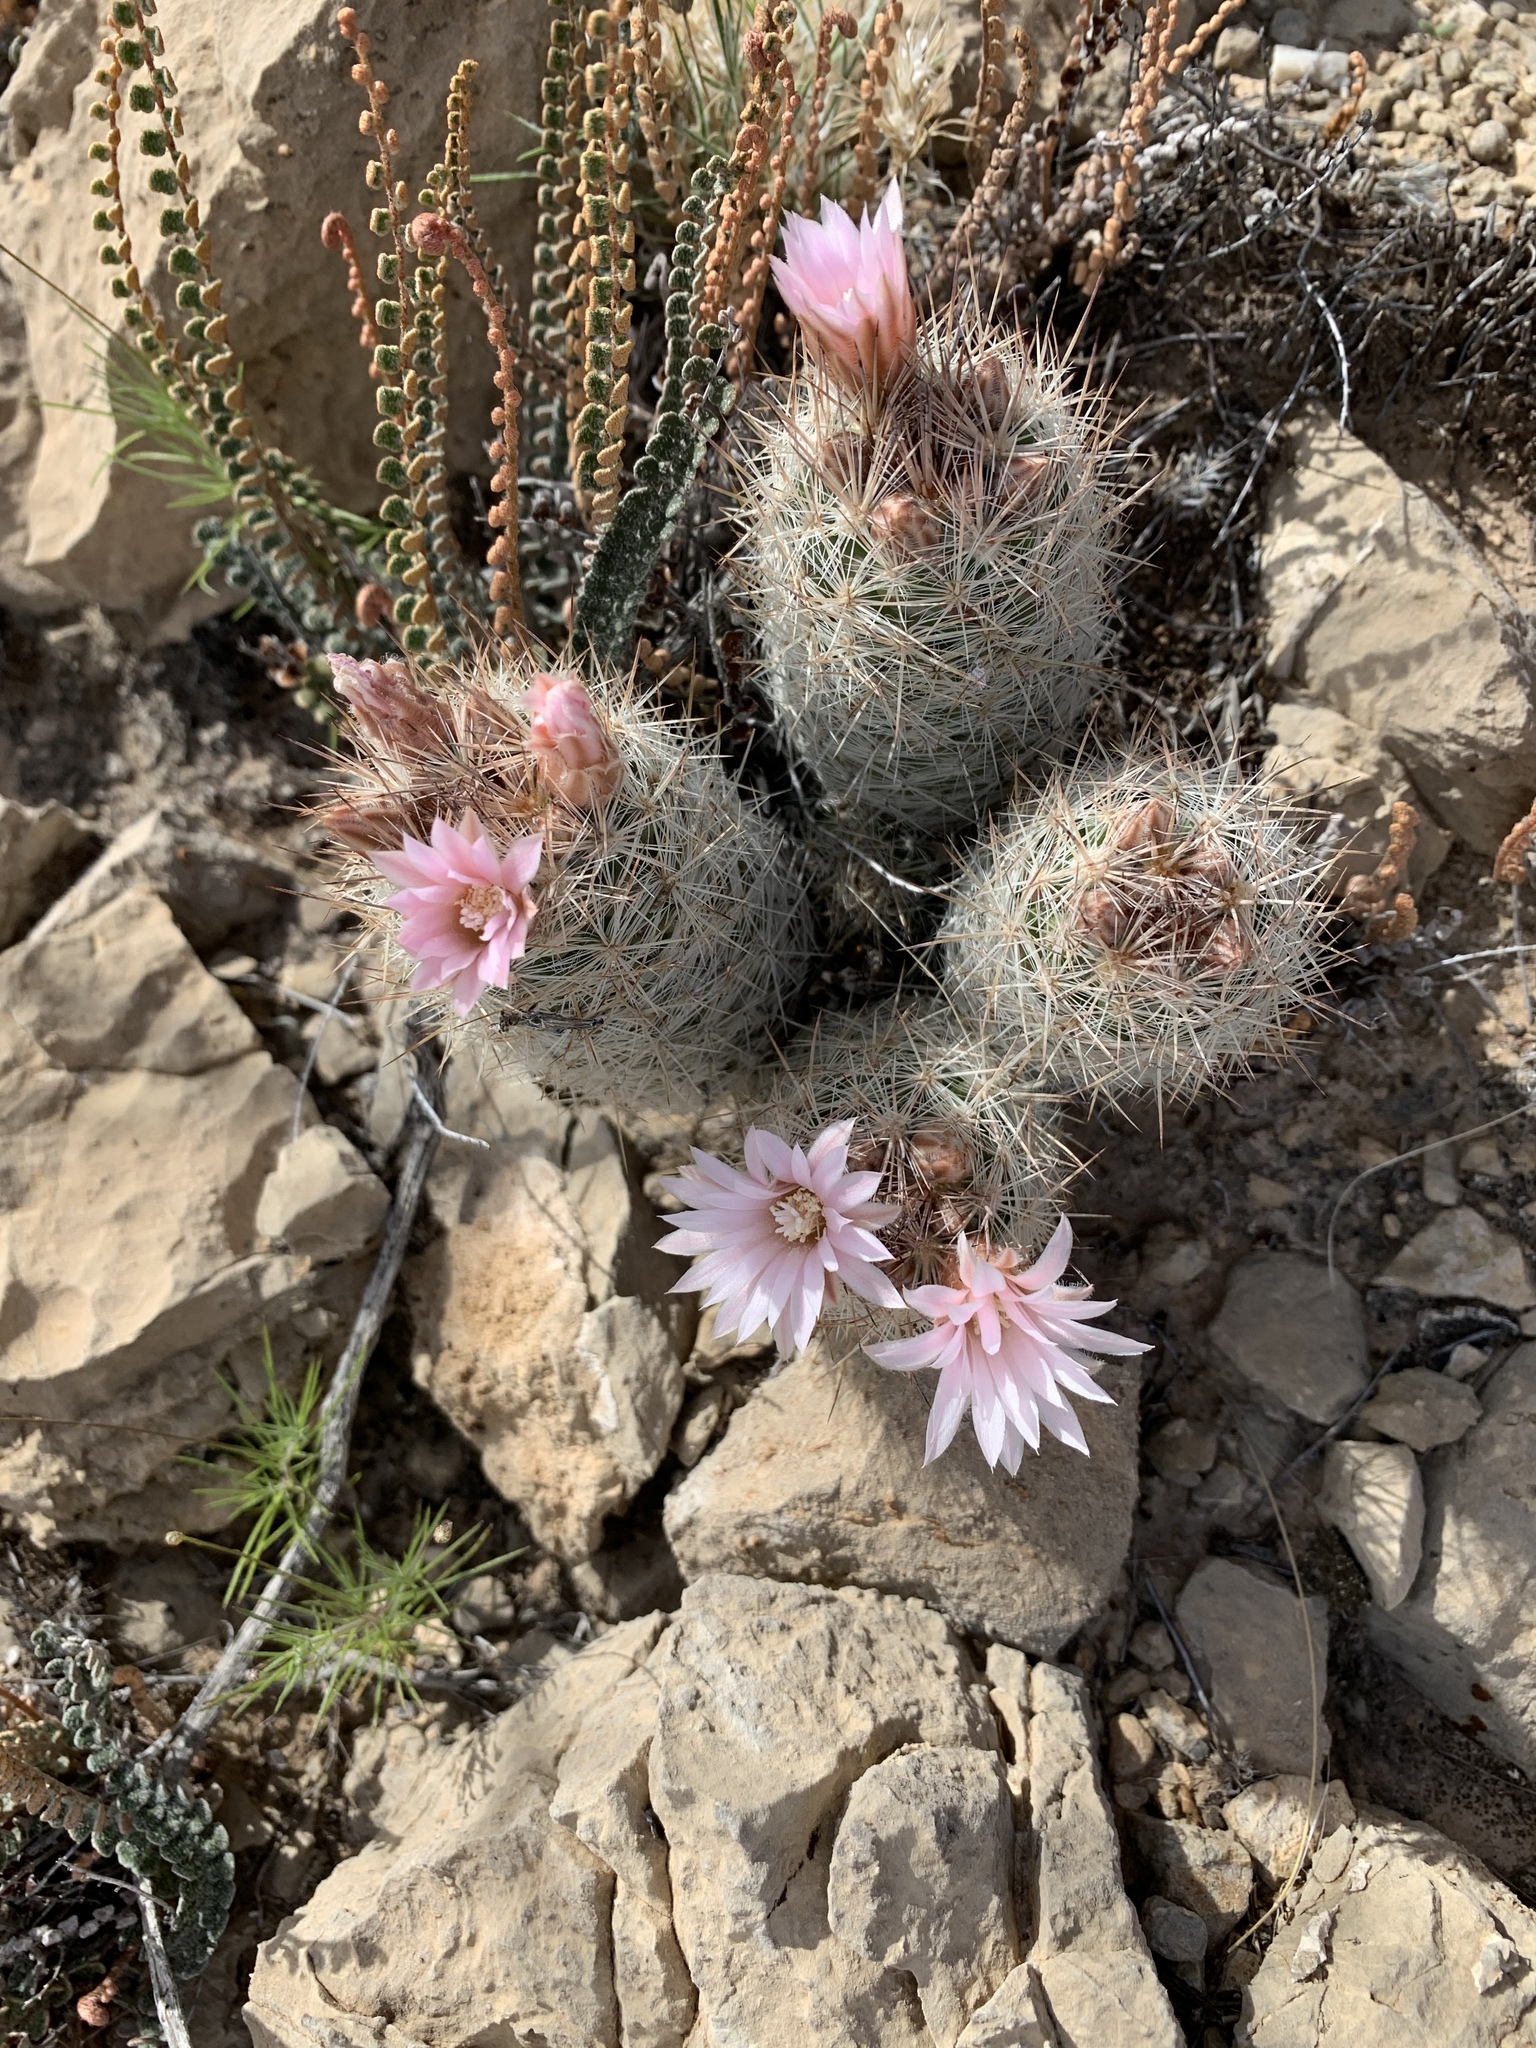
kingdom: Plantae
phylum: Tracheophyta
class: Magnoliopsida
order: Caryophyllales
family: Cactaceae
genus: Pelecyphora
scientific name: Pelecyphora tuberculosa
